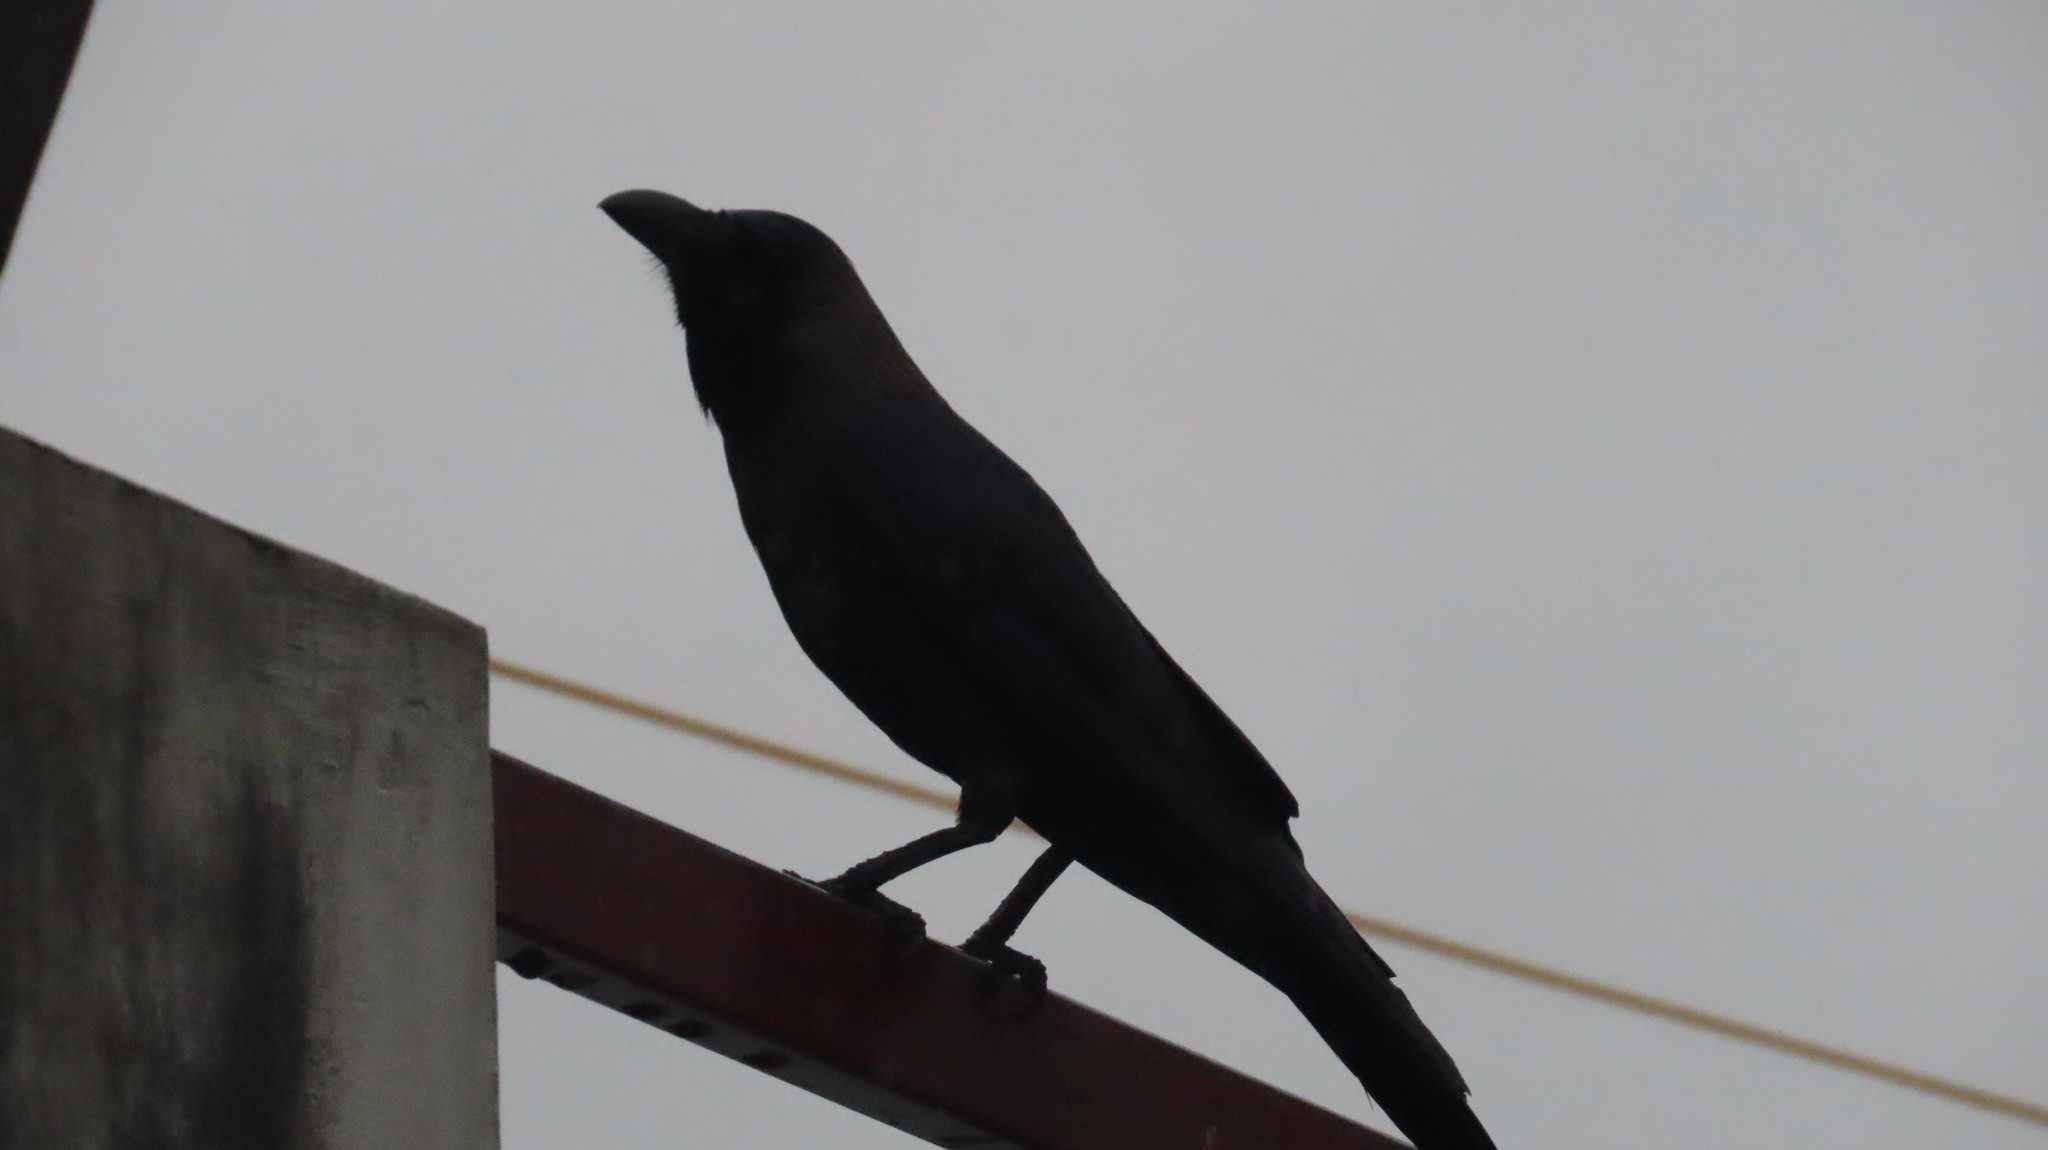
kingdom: Animalia
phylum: Chordata
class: Aves
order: Passeriformes
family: Corvidae
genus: Corvus
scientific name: Corvus splendens
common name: House crow
